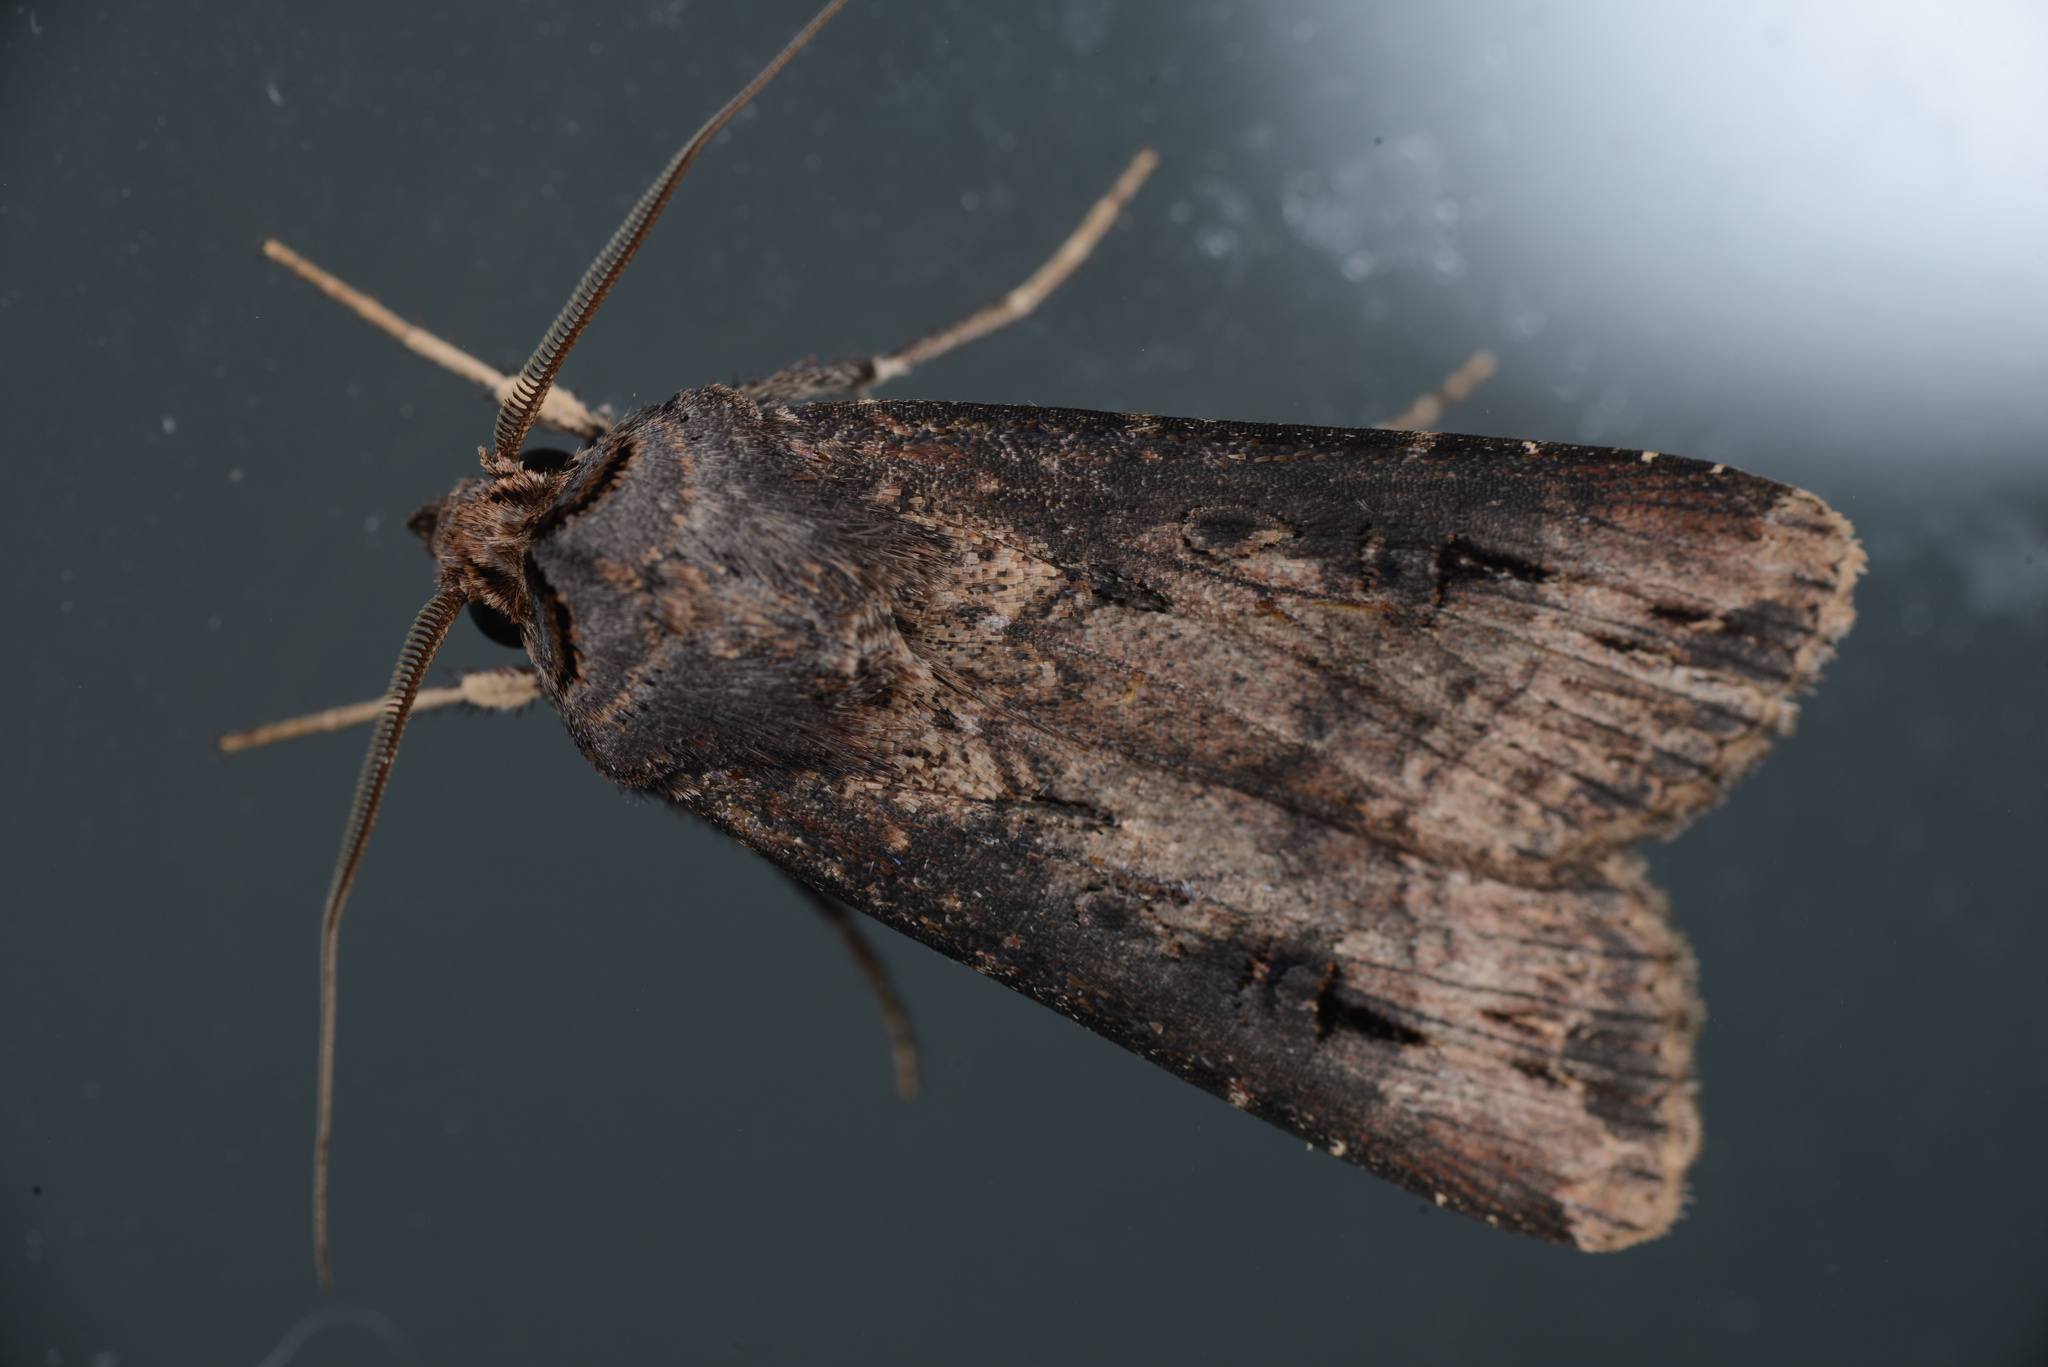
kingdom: Animalia
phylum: Arthropoda
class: Insecta
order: Lepidoptera
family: Noctuidae
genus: Agrotis
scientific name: Agrotis ipsilon
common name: Dark sword-grass
